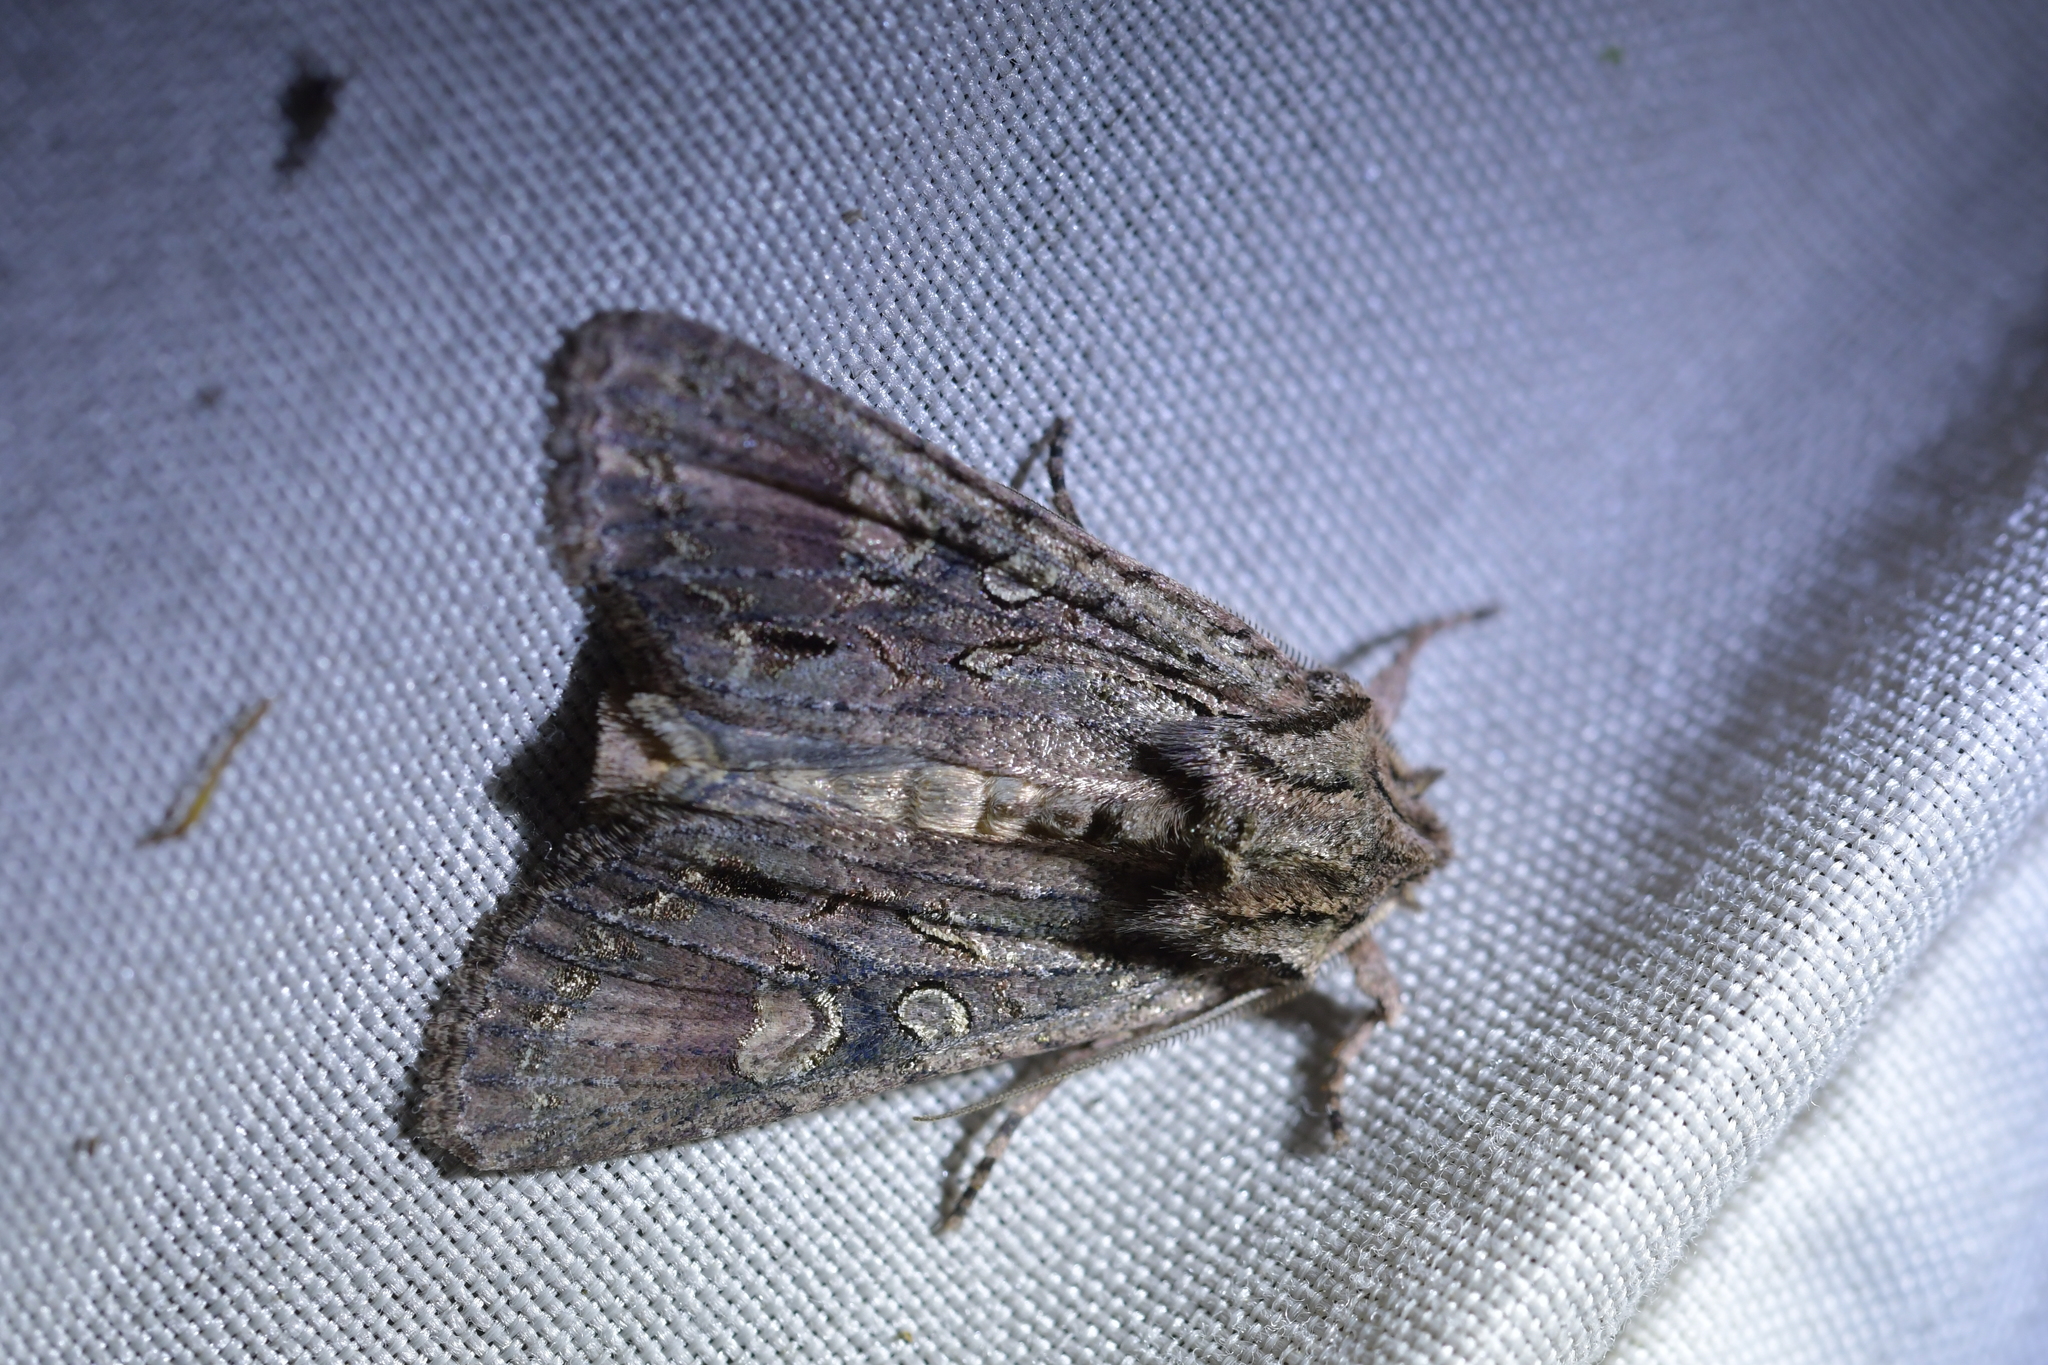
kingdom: Animalia
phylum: Arthropoda
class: Insecta
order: Lepidoptera
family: Noctuidae
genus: Ichneutica
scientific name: Ichneutica mutans
